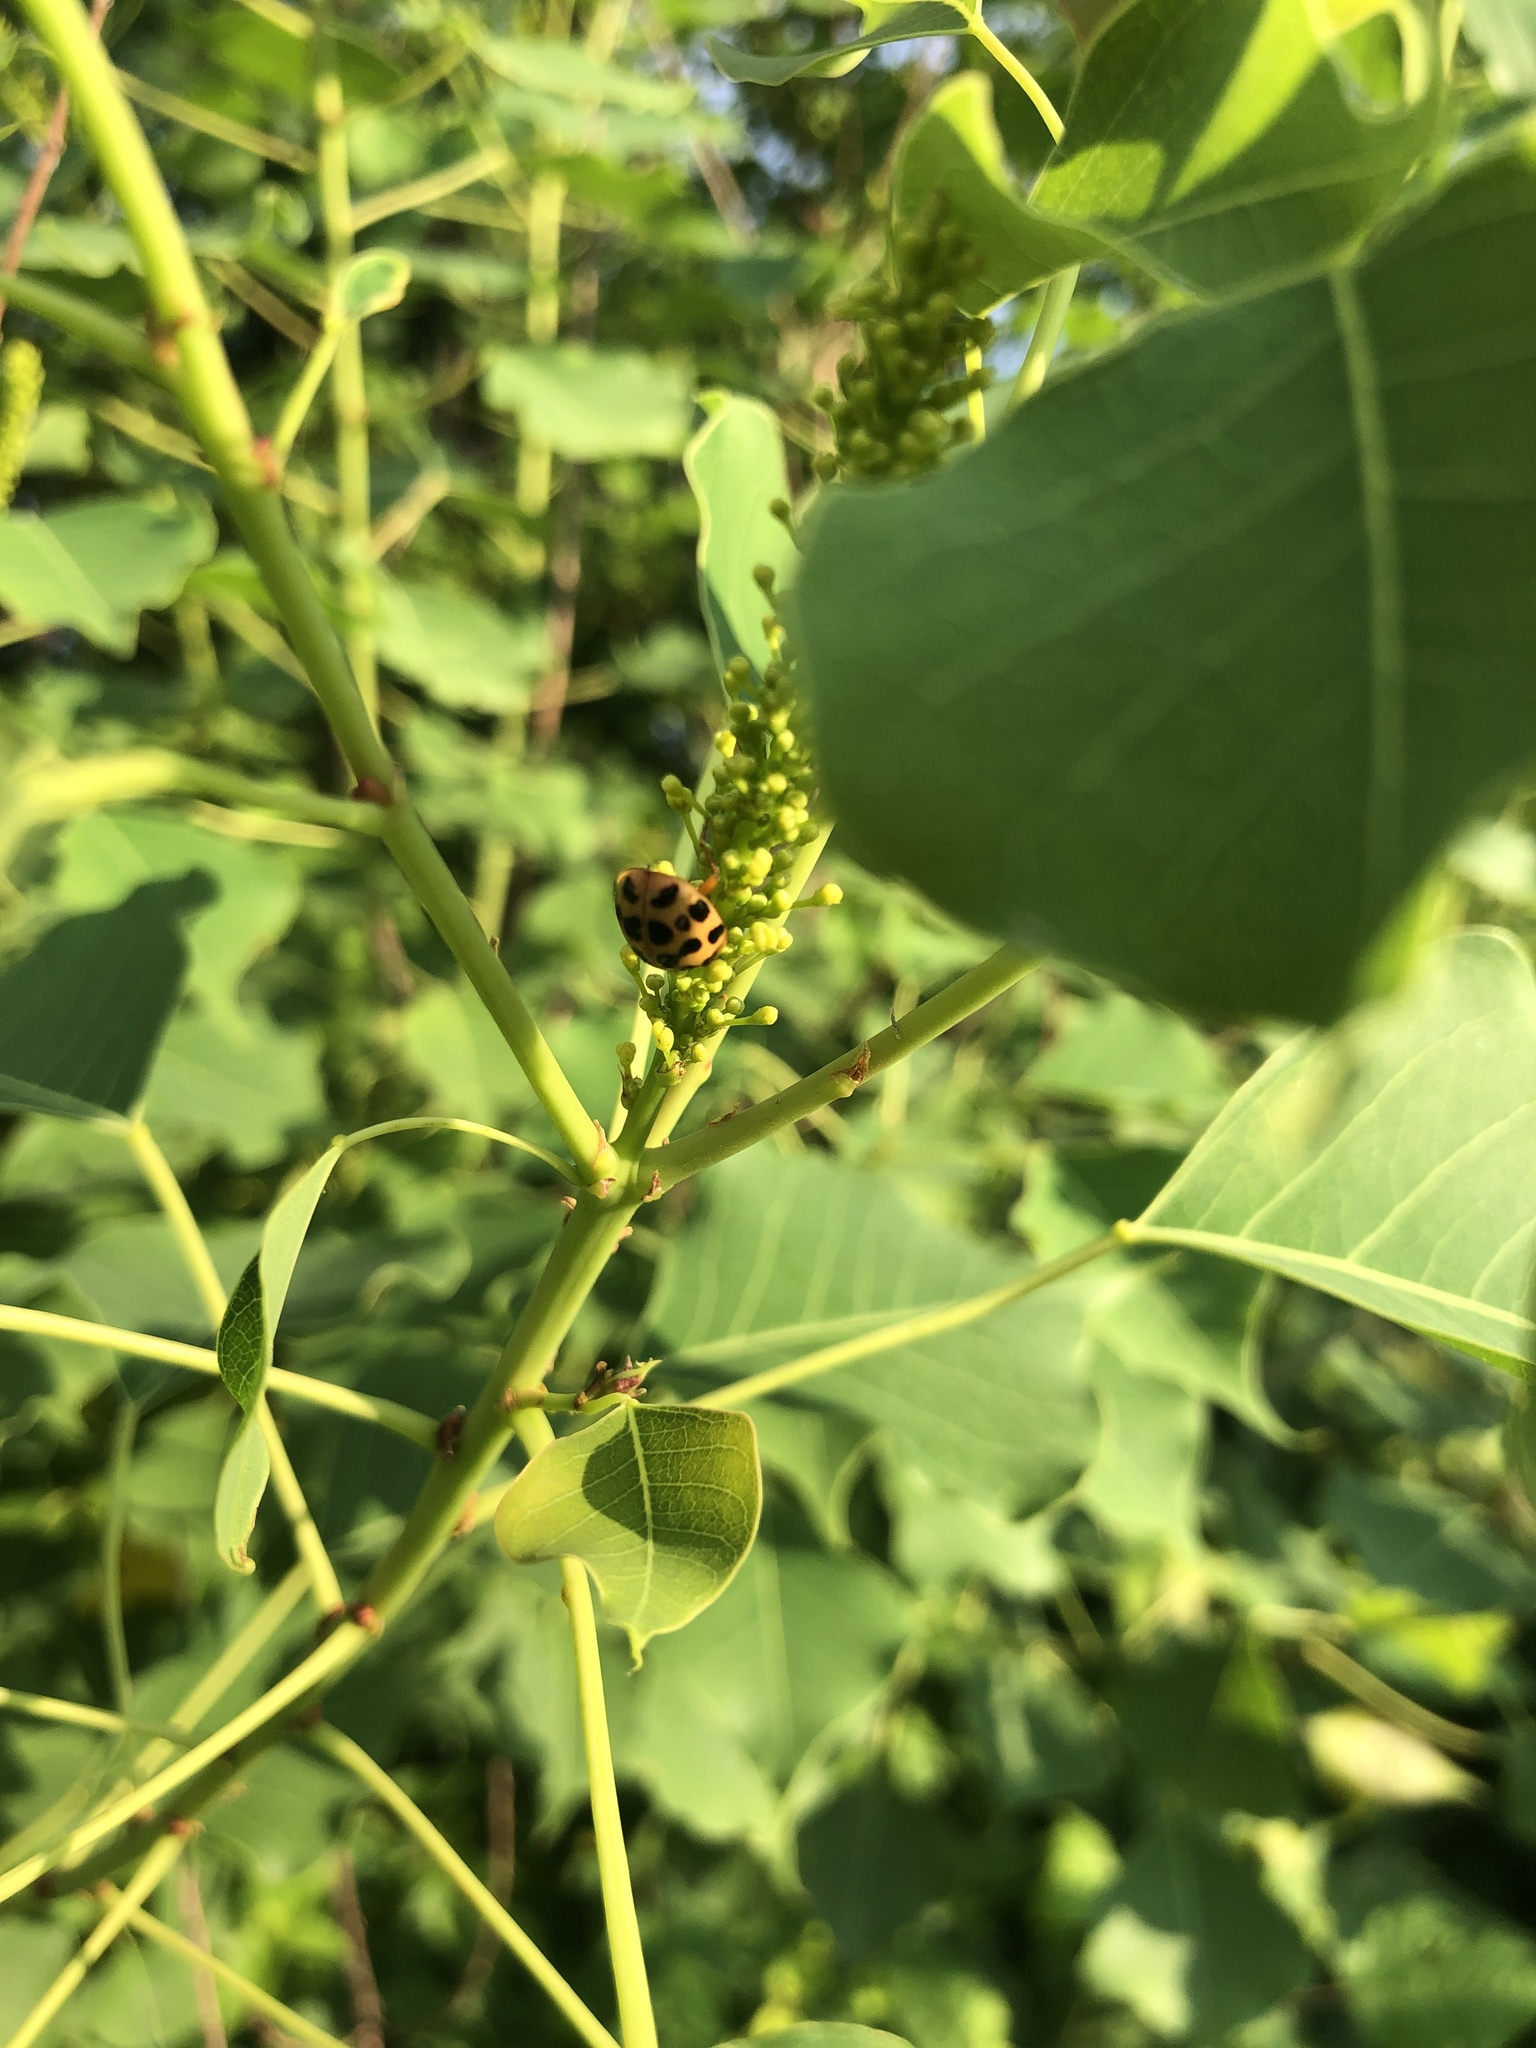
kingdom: Plantae
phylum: Tracheophyta
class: Magnoliopsida
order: Malpighiales
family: Euphorbiaceae
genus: Triadica
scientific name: Triadica sebifera
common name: Chinese tallow
